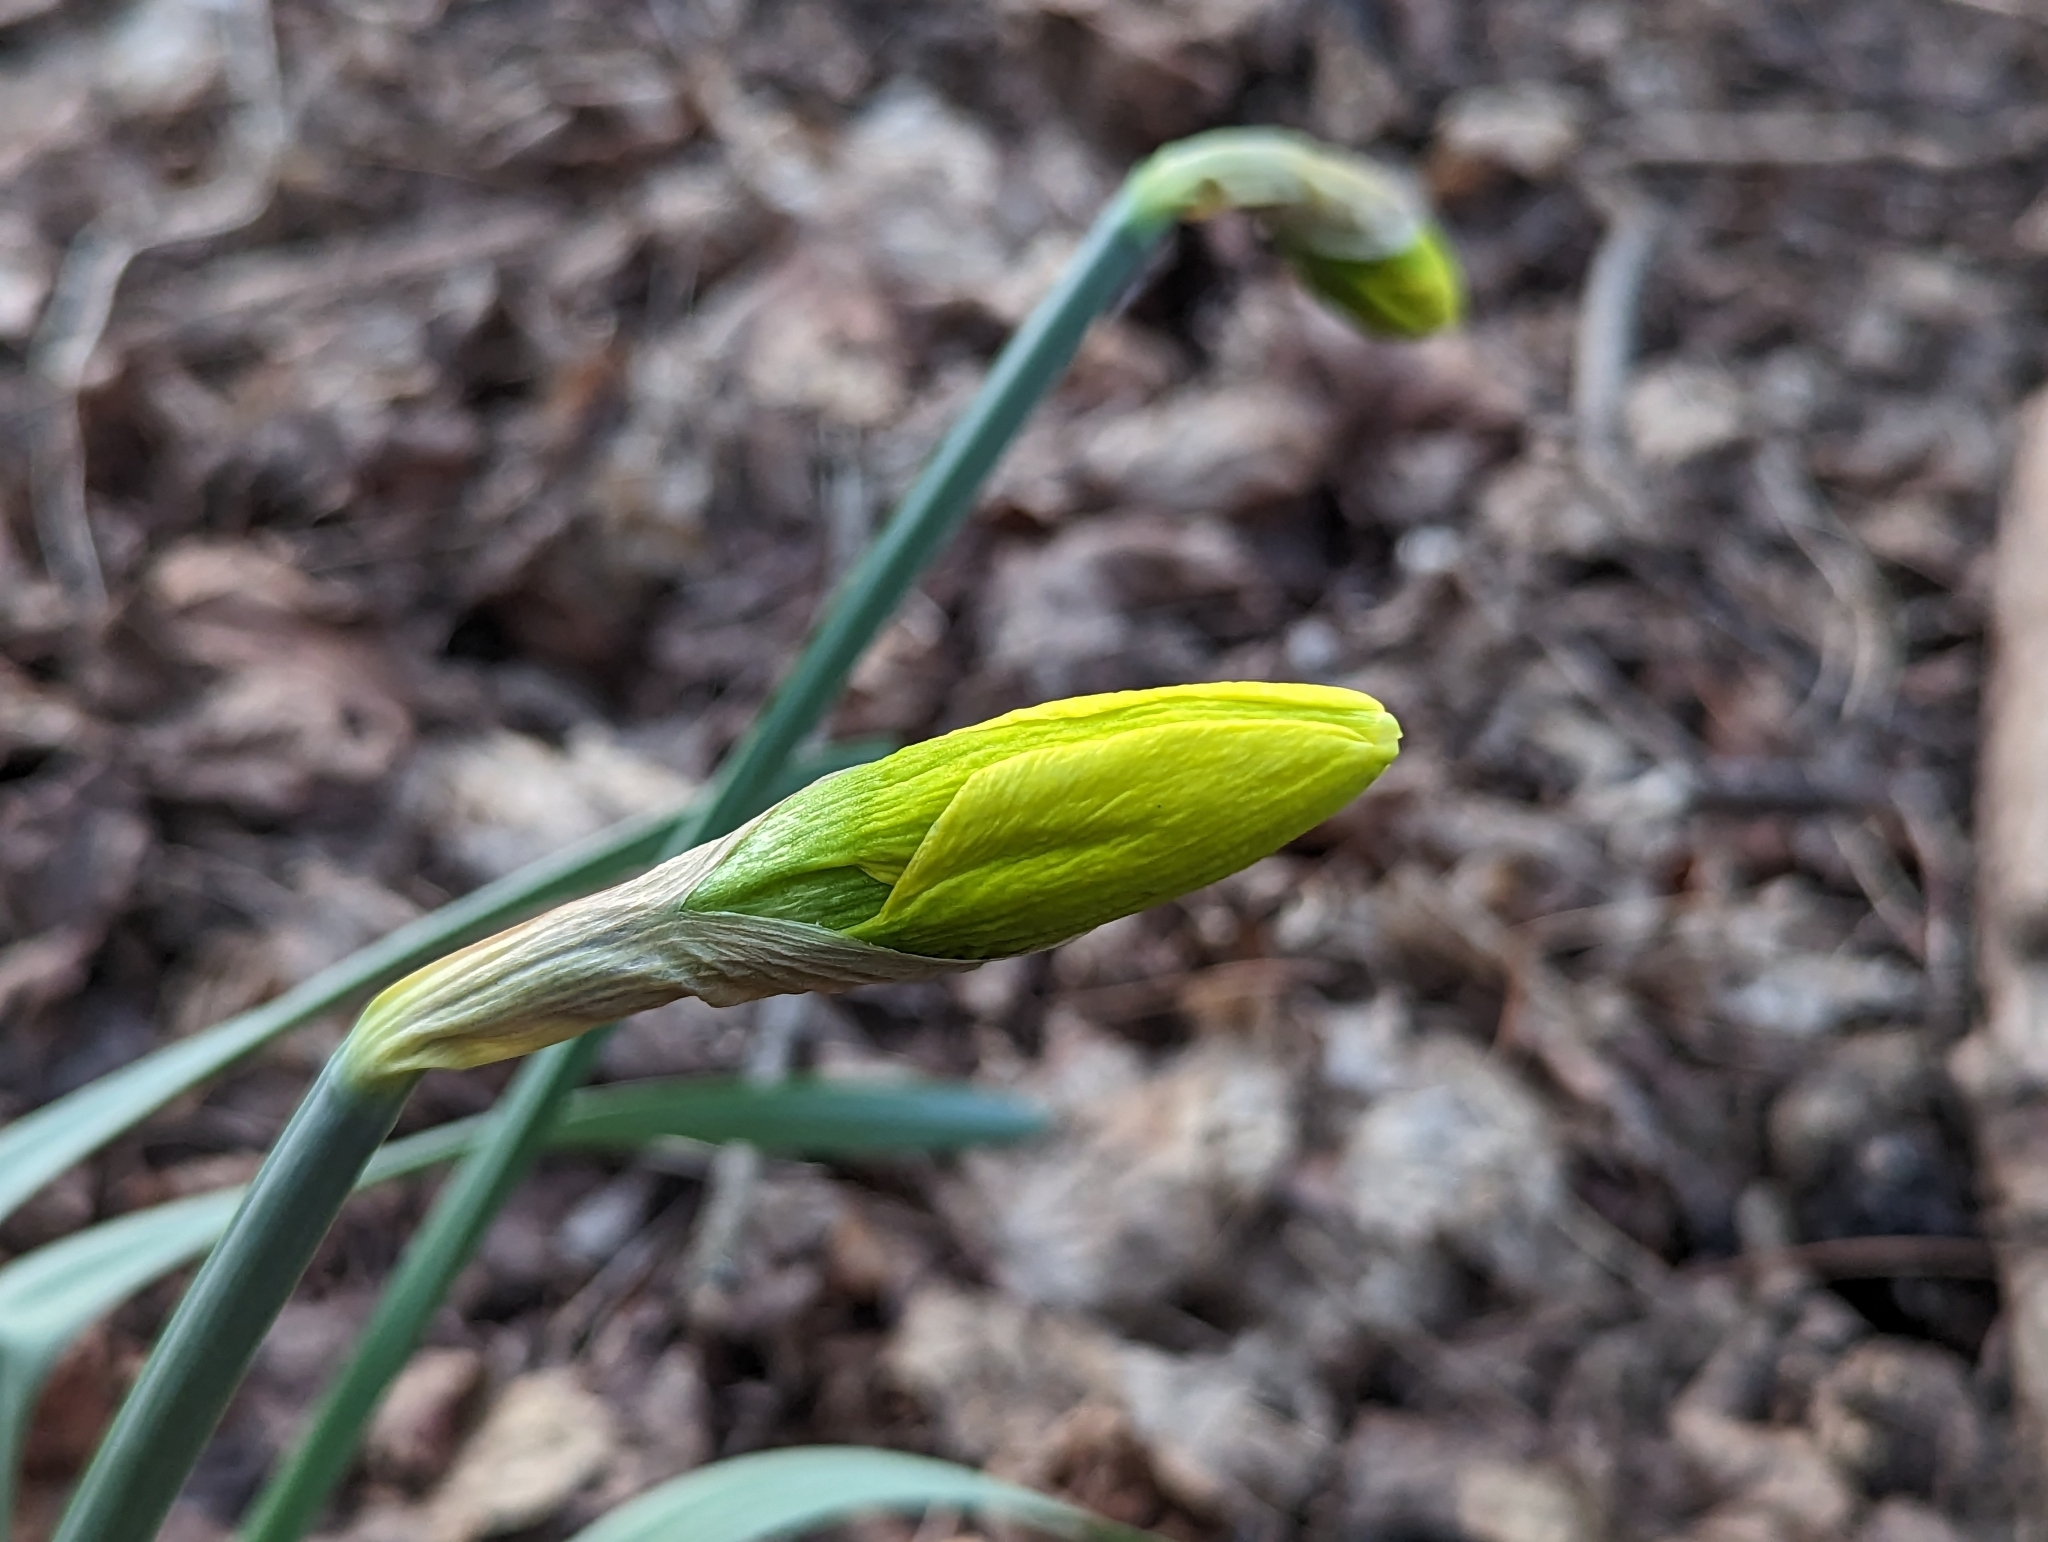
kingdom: Plantae
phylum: Tracheophyta
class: Liliopsida
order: Asparagales
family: Amaryllidaceae
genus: Narcissus
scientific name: Narcissus
